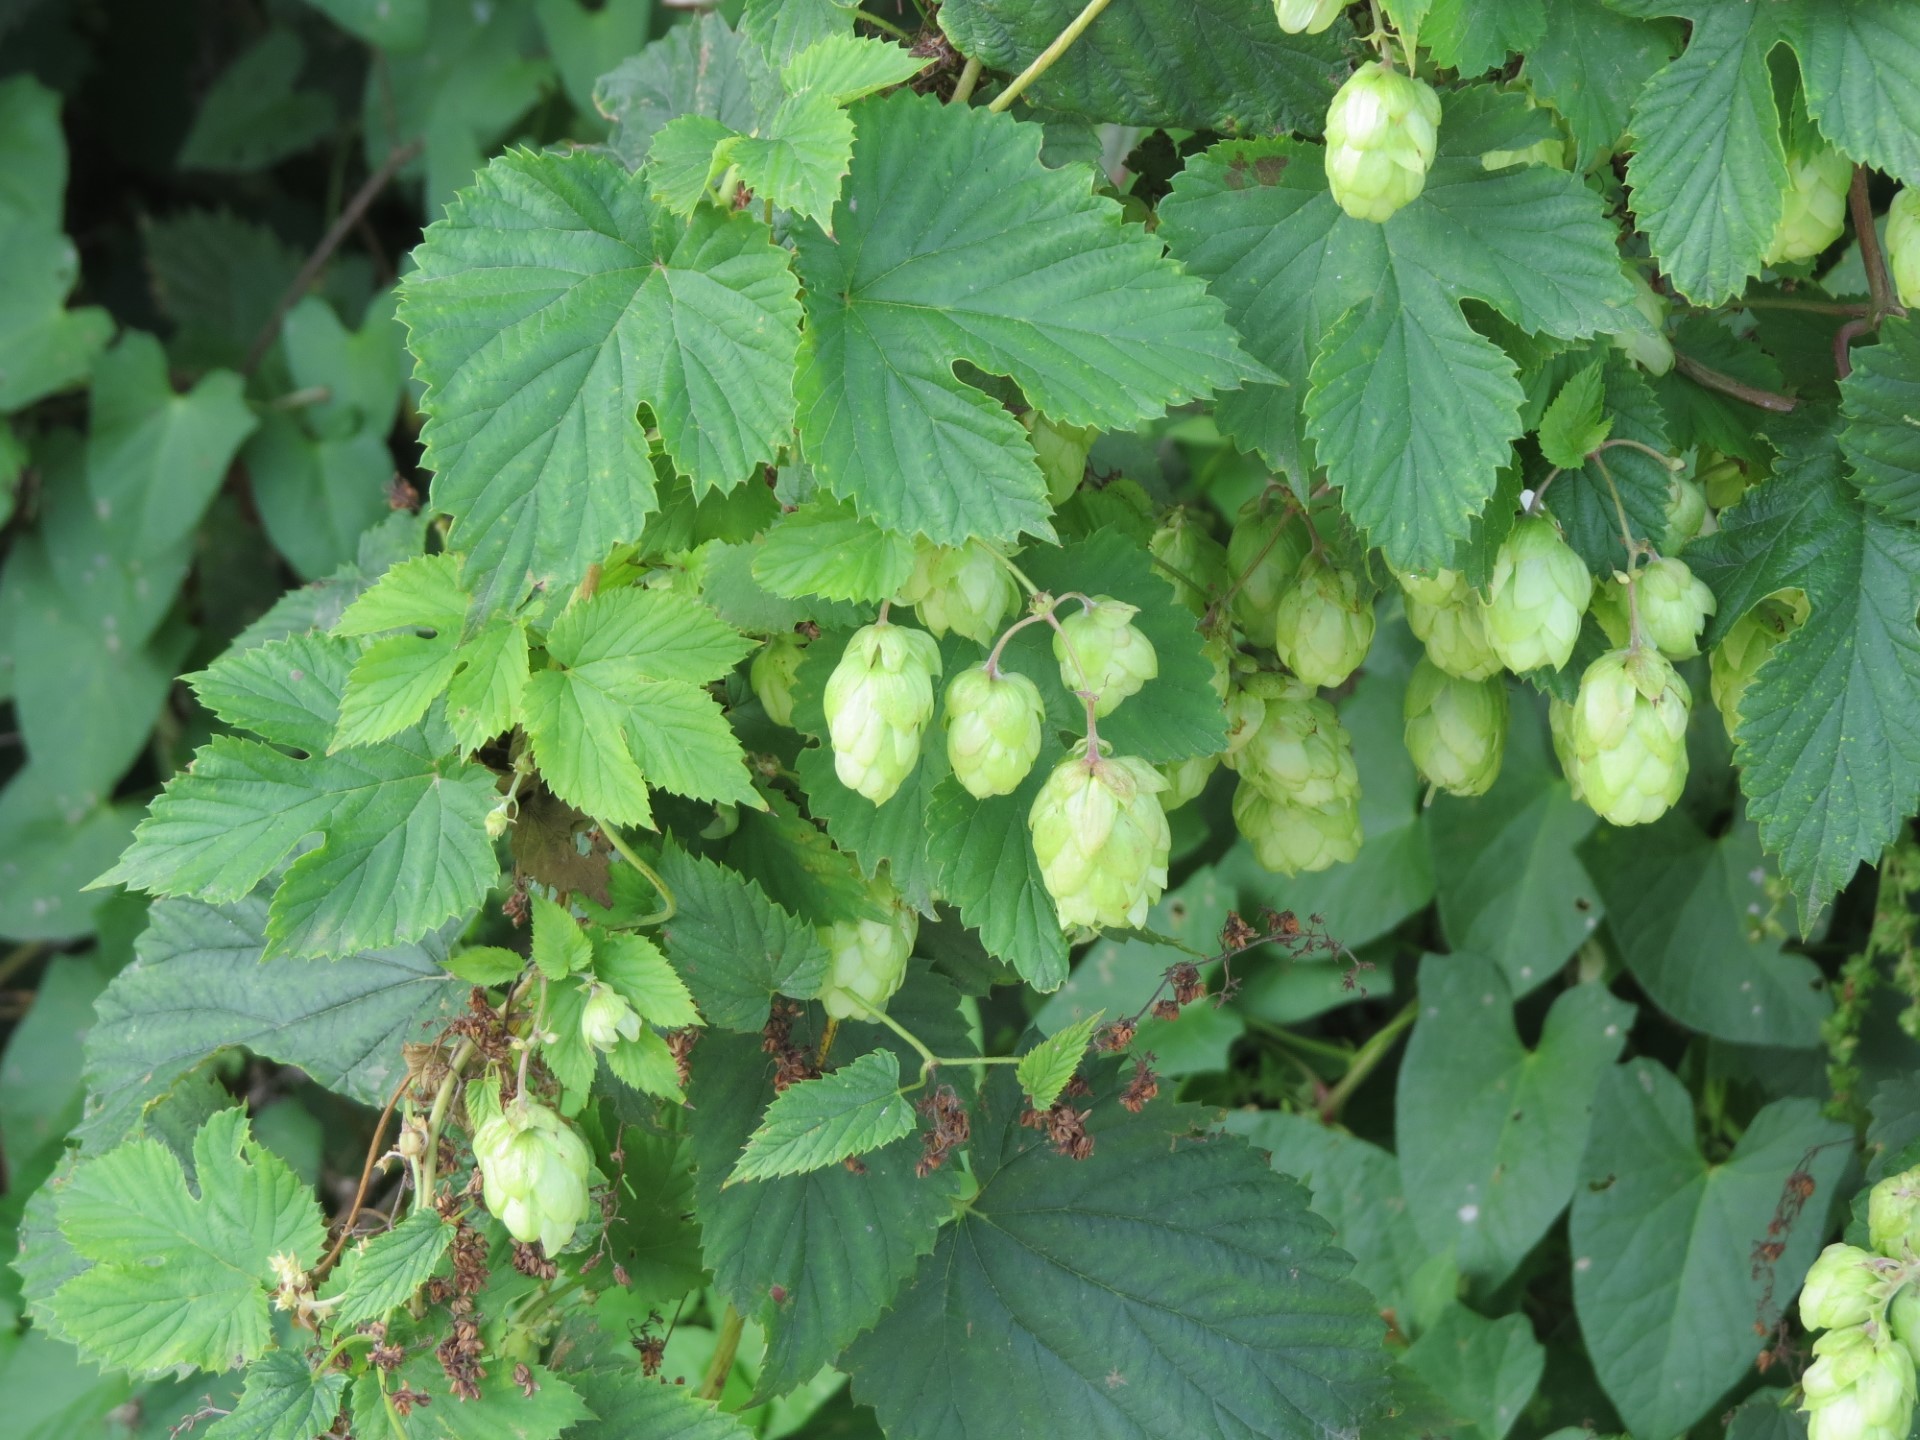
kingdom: Plantae
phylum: Tracheophyta
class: Magnoliopsida
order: Rosales
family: Cannabaceae
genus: Humulus
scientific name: Humulus lupulus
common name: Hop
